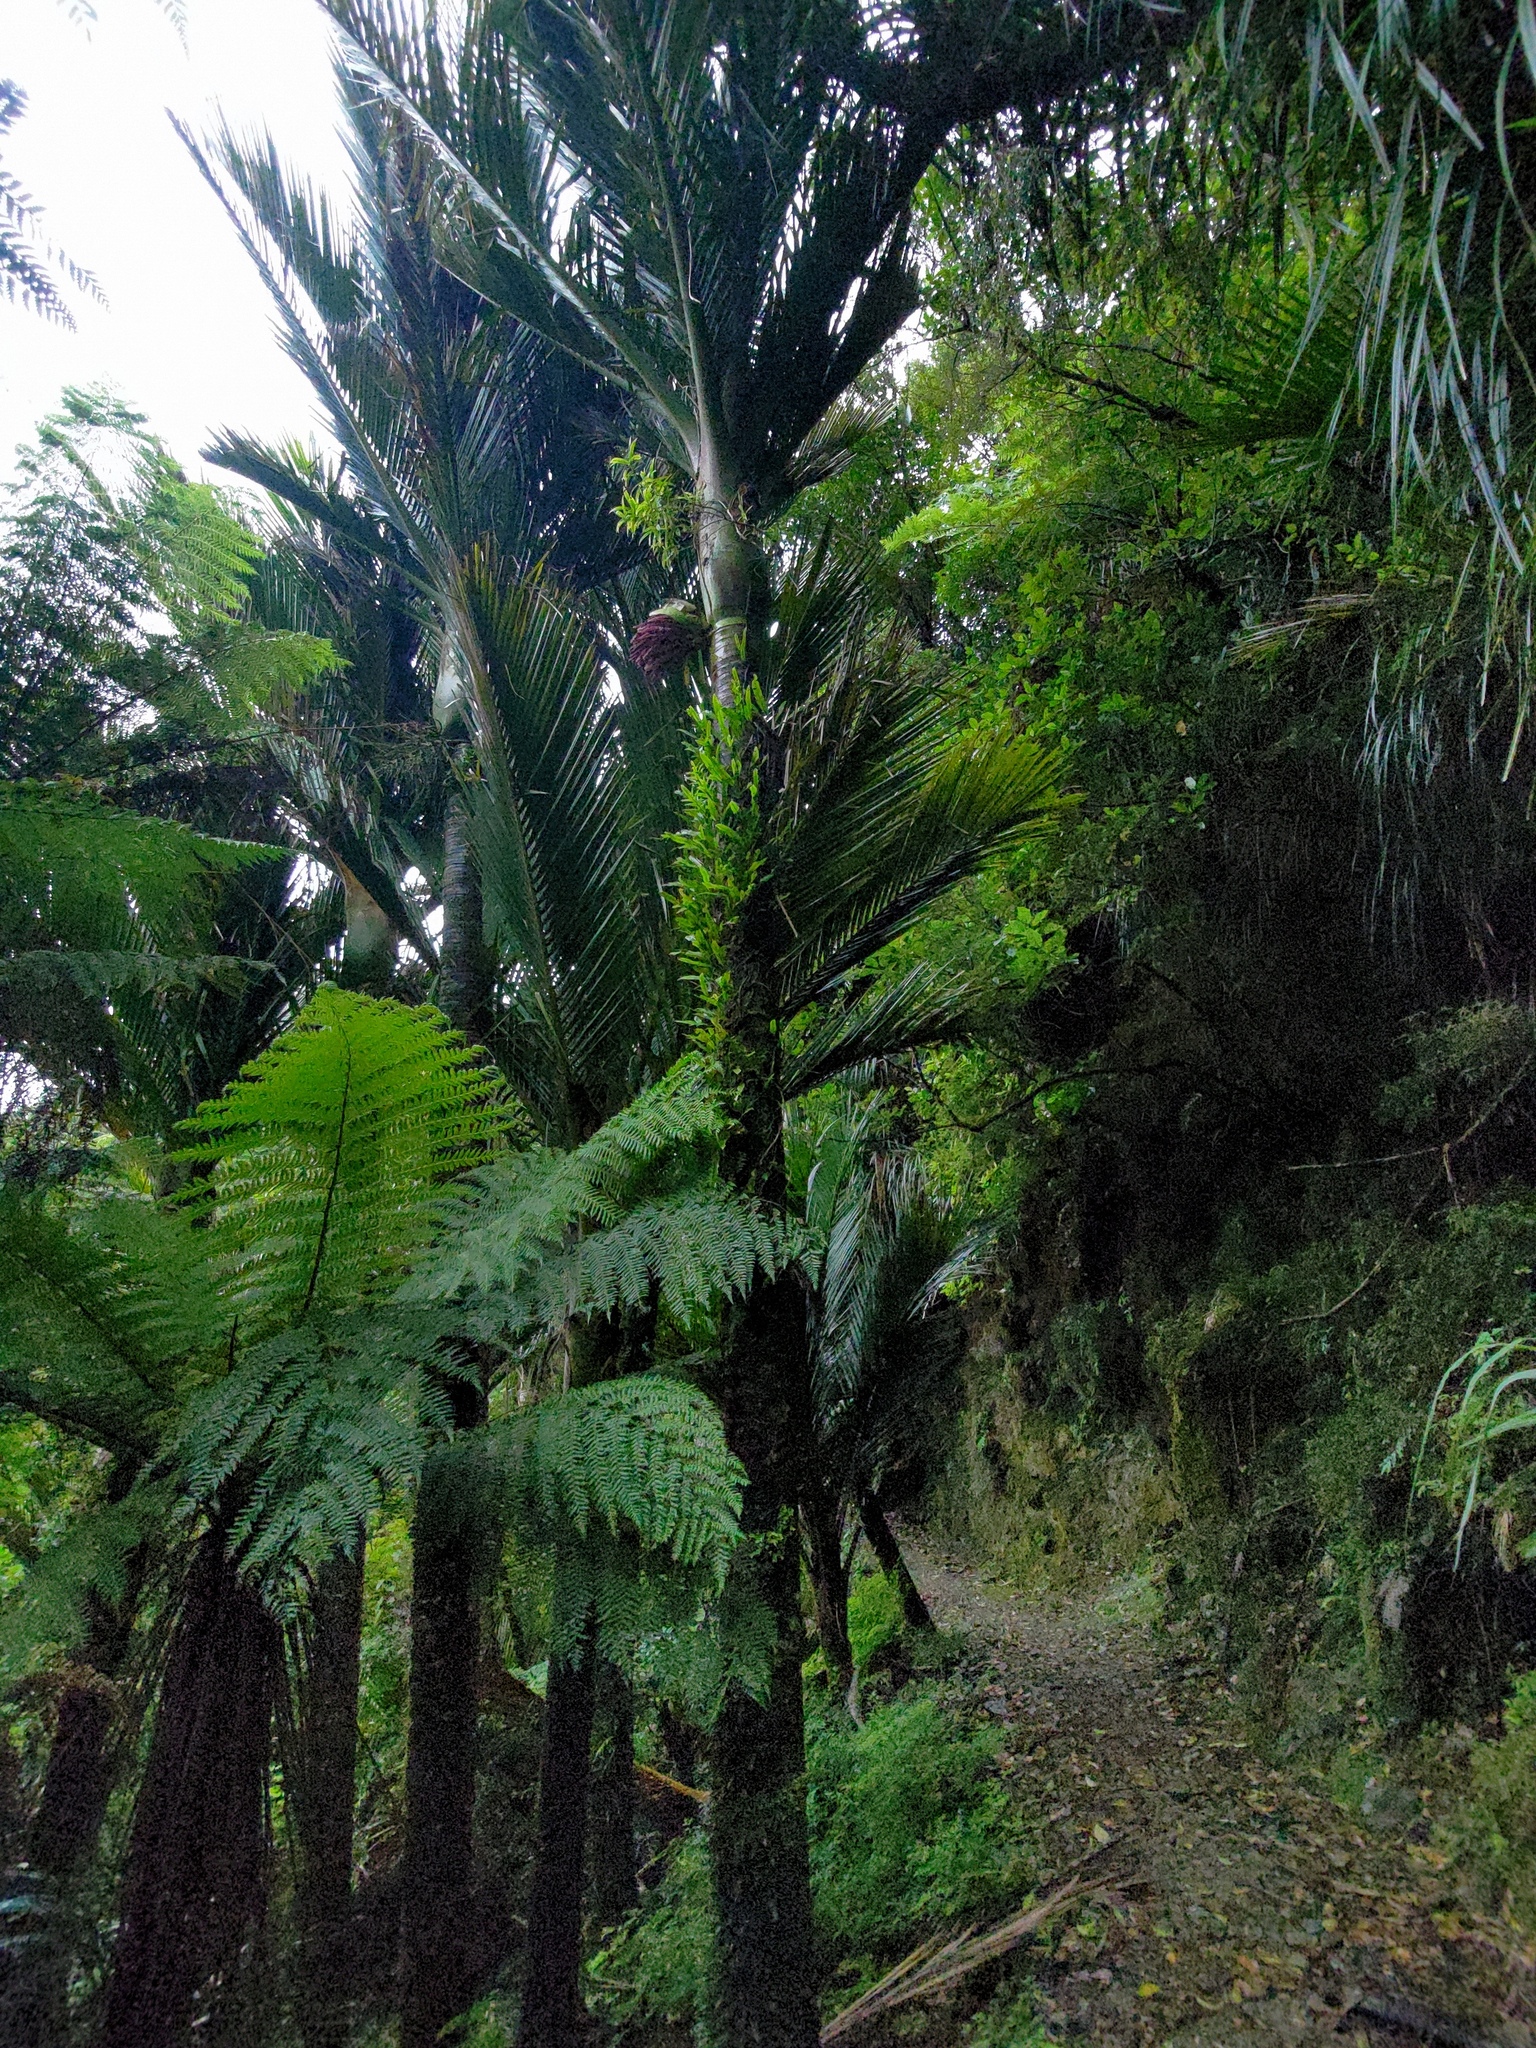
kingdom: Plantae
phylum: Tracheophyta
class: Liliopsida
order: Arecales
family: Arecaceae
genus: Rhopalostylis
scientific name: Rhopalostylis sapida
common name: Feather-duster palm
